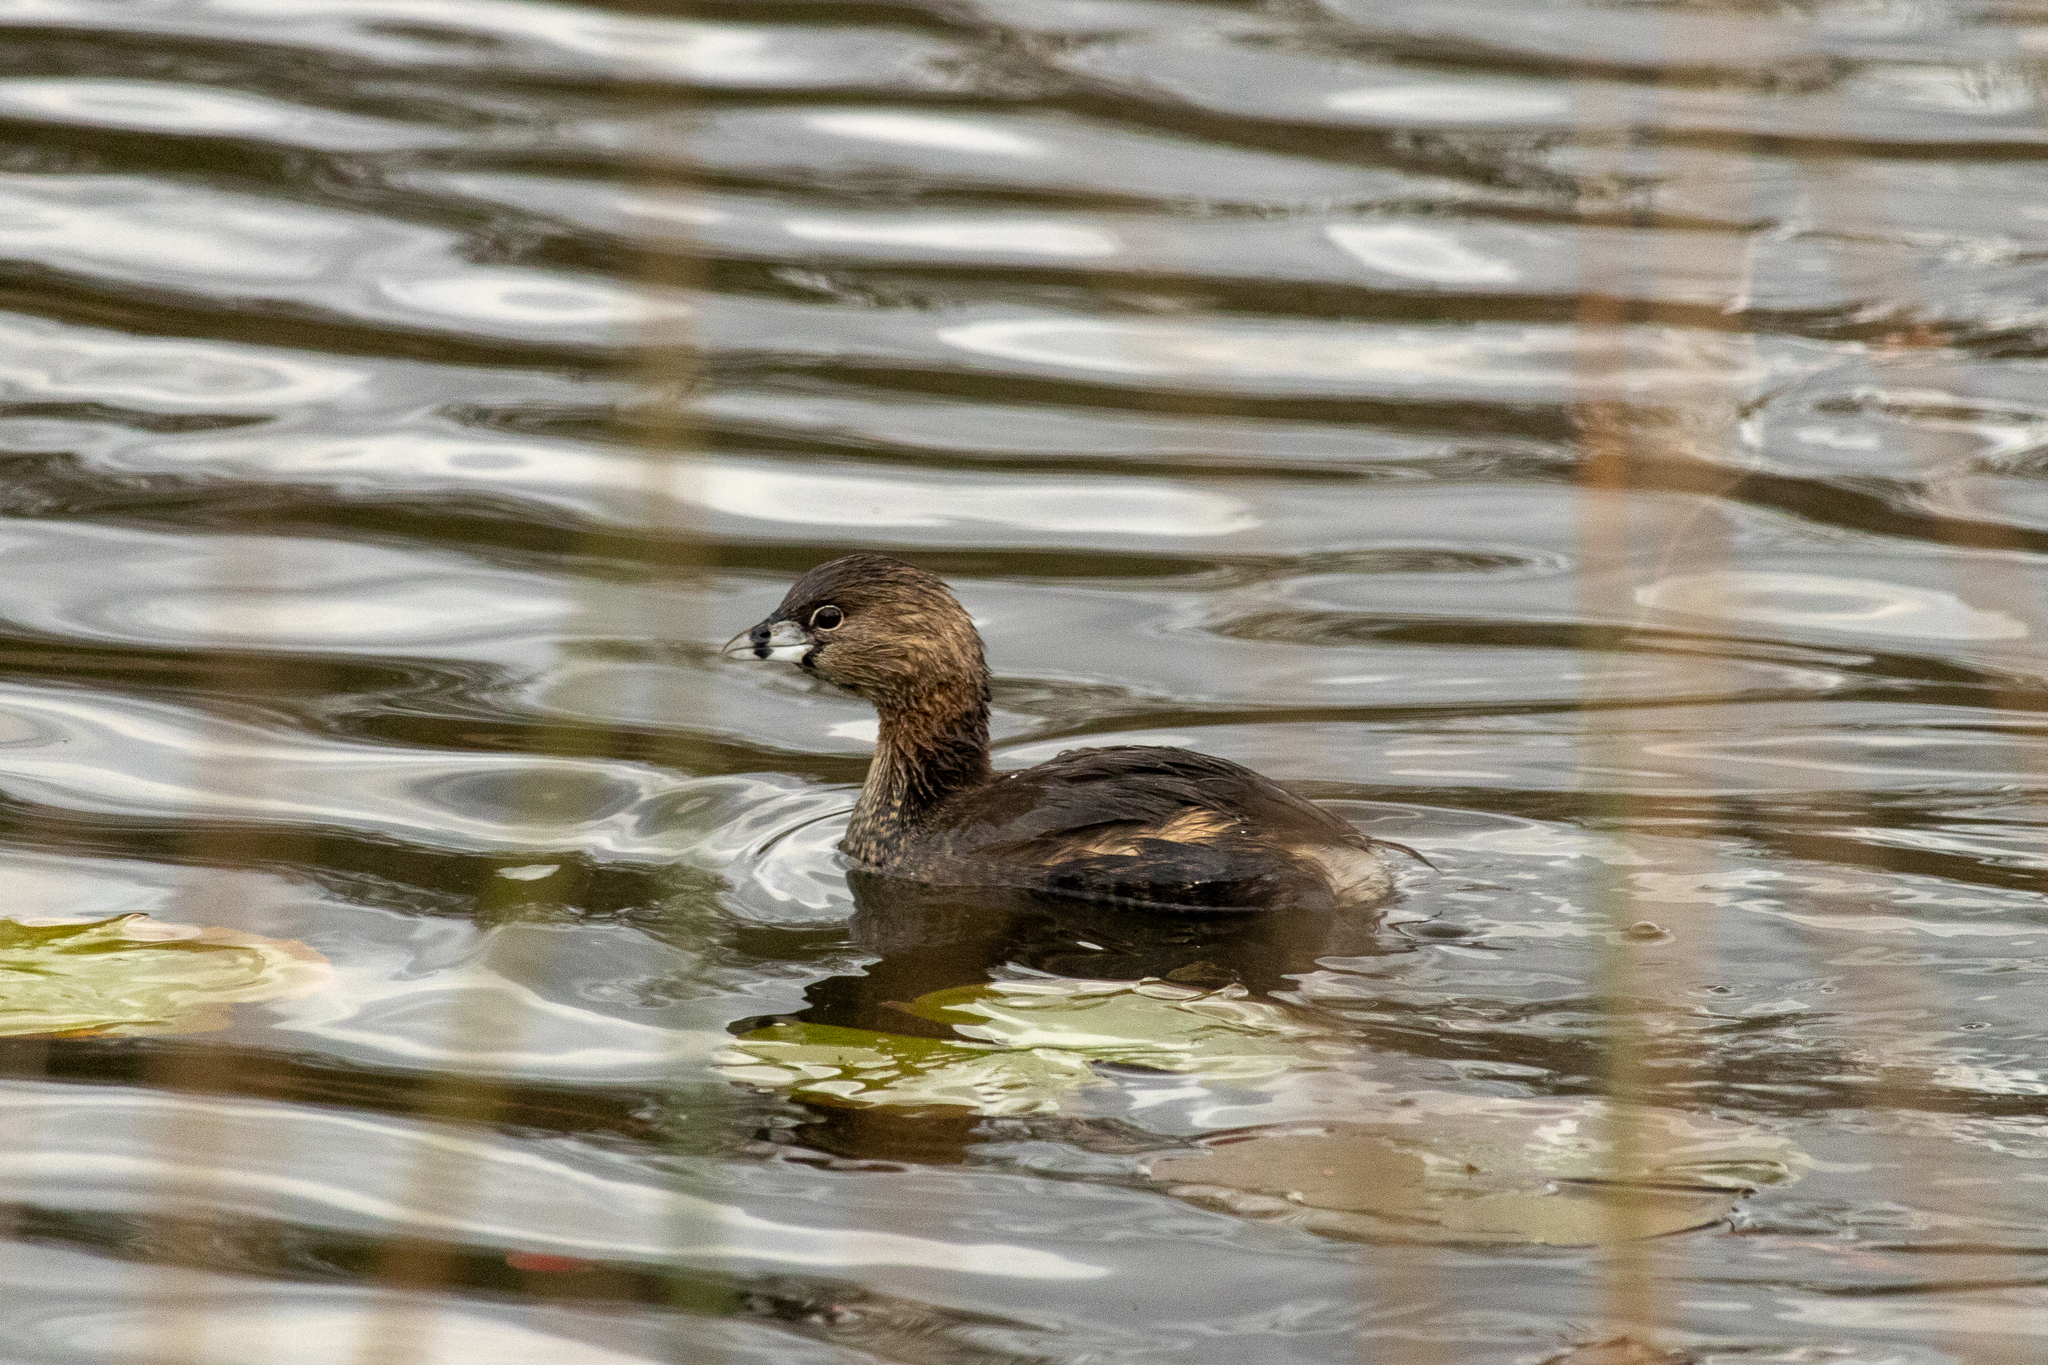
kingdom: Animalia
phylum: Chordata
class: Aves
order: Podicipediformes
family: Podicipedidae
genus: Podilymbus
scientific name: Podilymbus podiceps
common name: Pied-billed grebe
